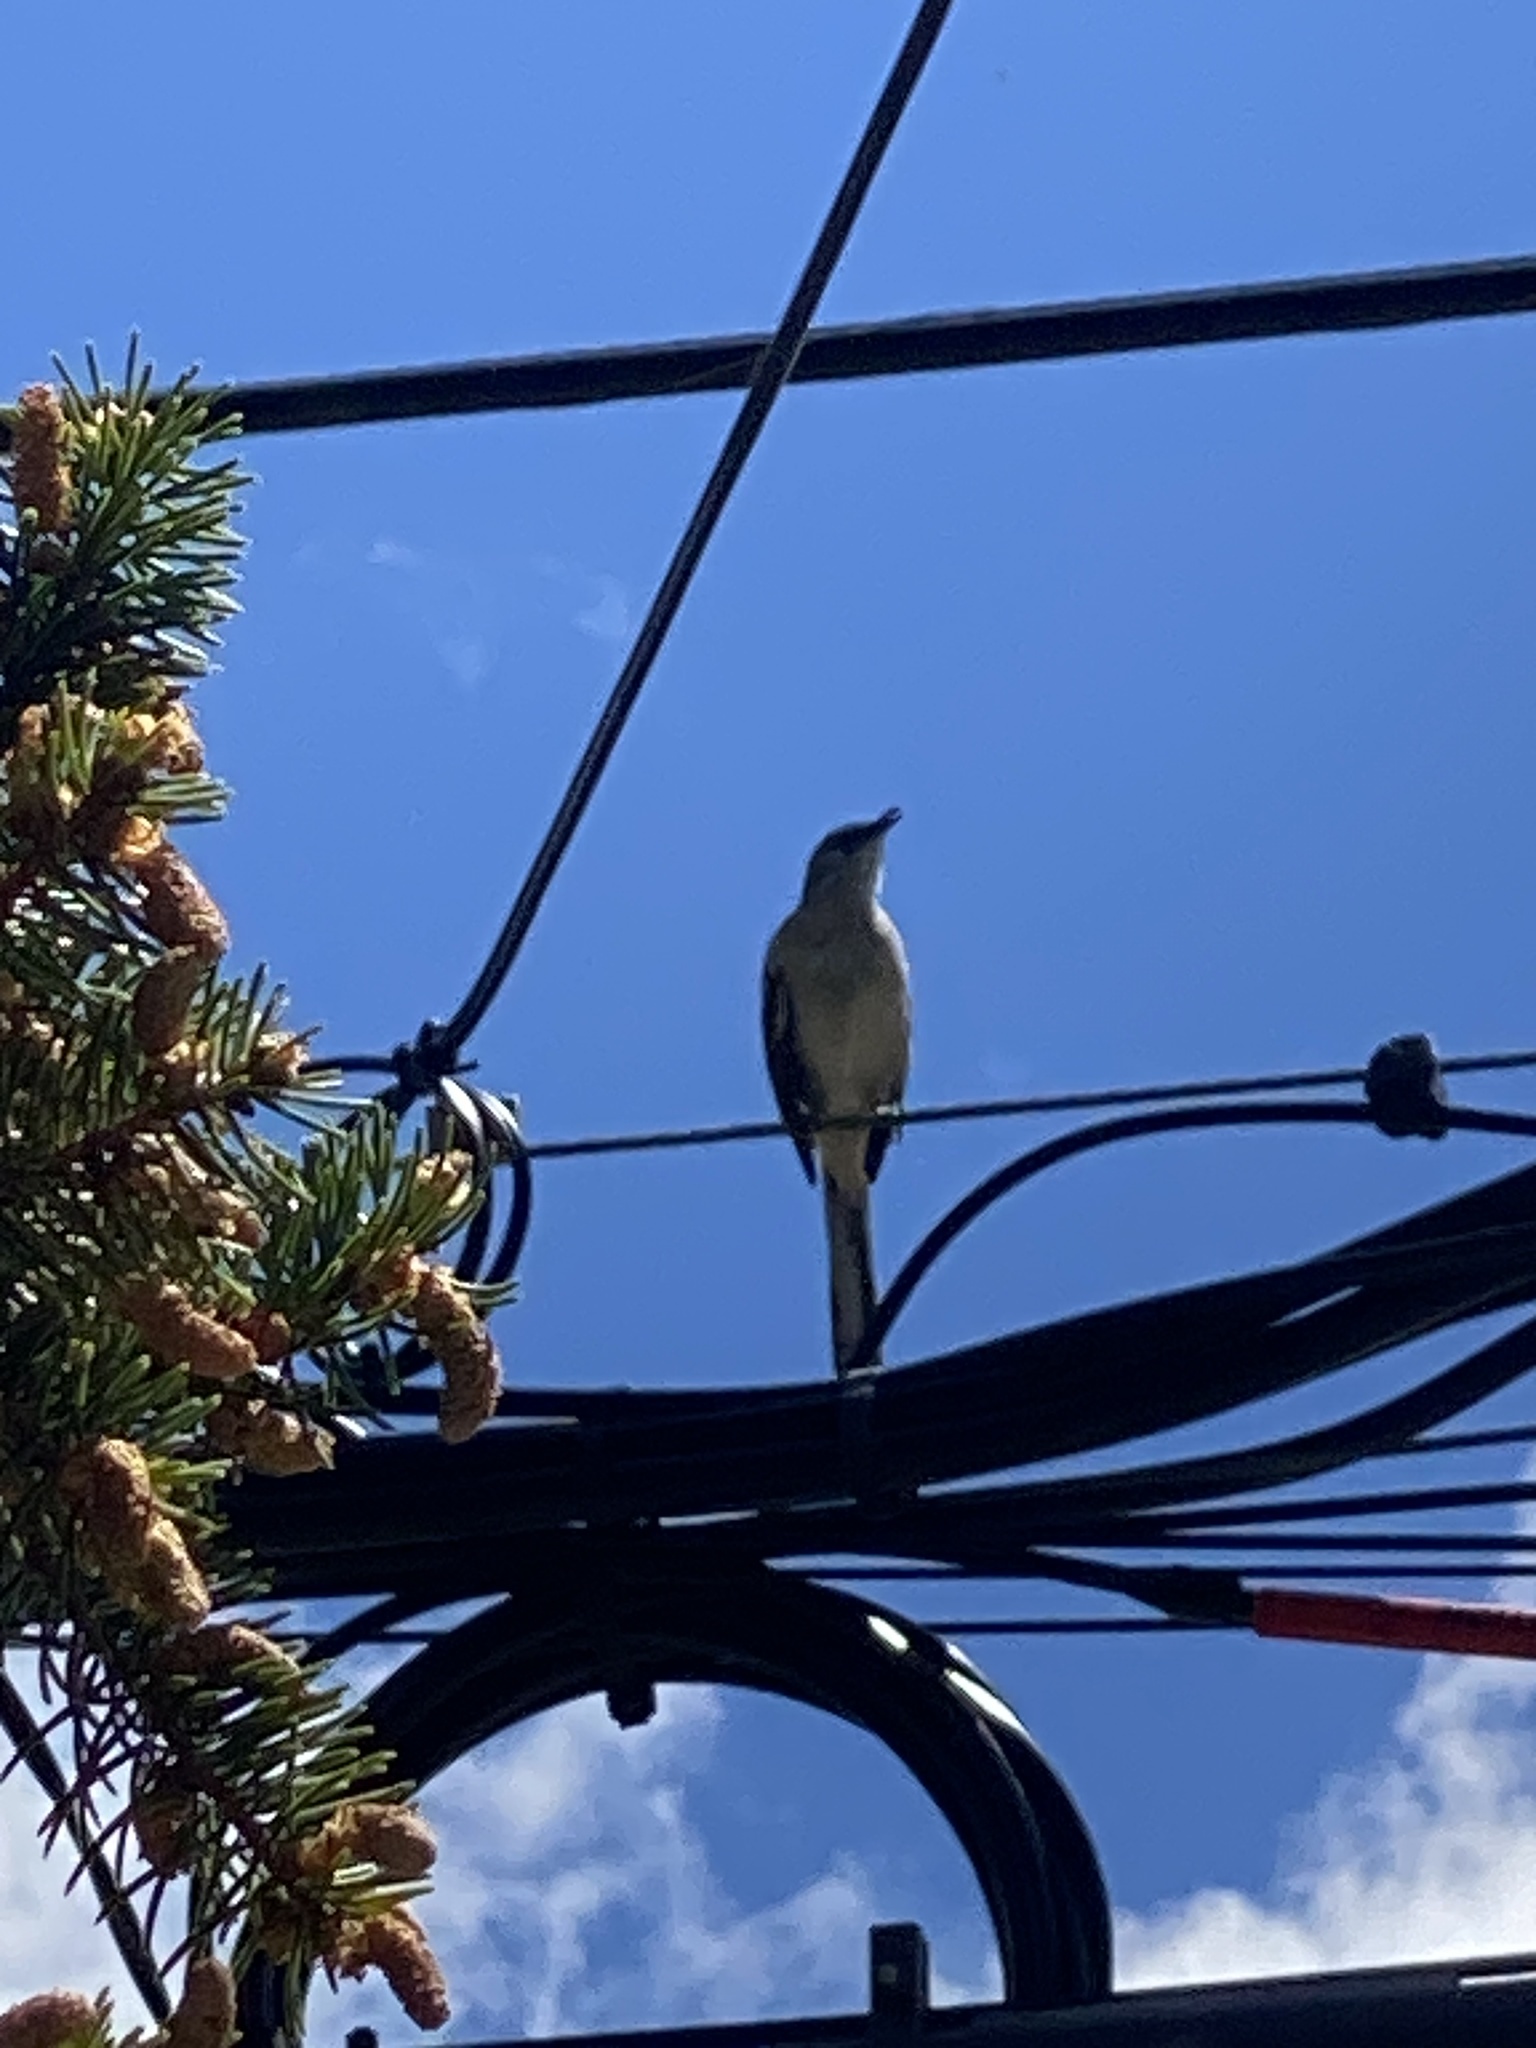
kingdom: Animalia
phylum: Chordata
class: Aves
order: Passeriformes
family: Mimidae
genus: Mimus
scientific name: Mimus polyglottos
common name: Northern mockingbird
